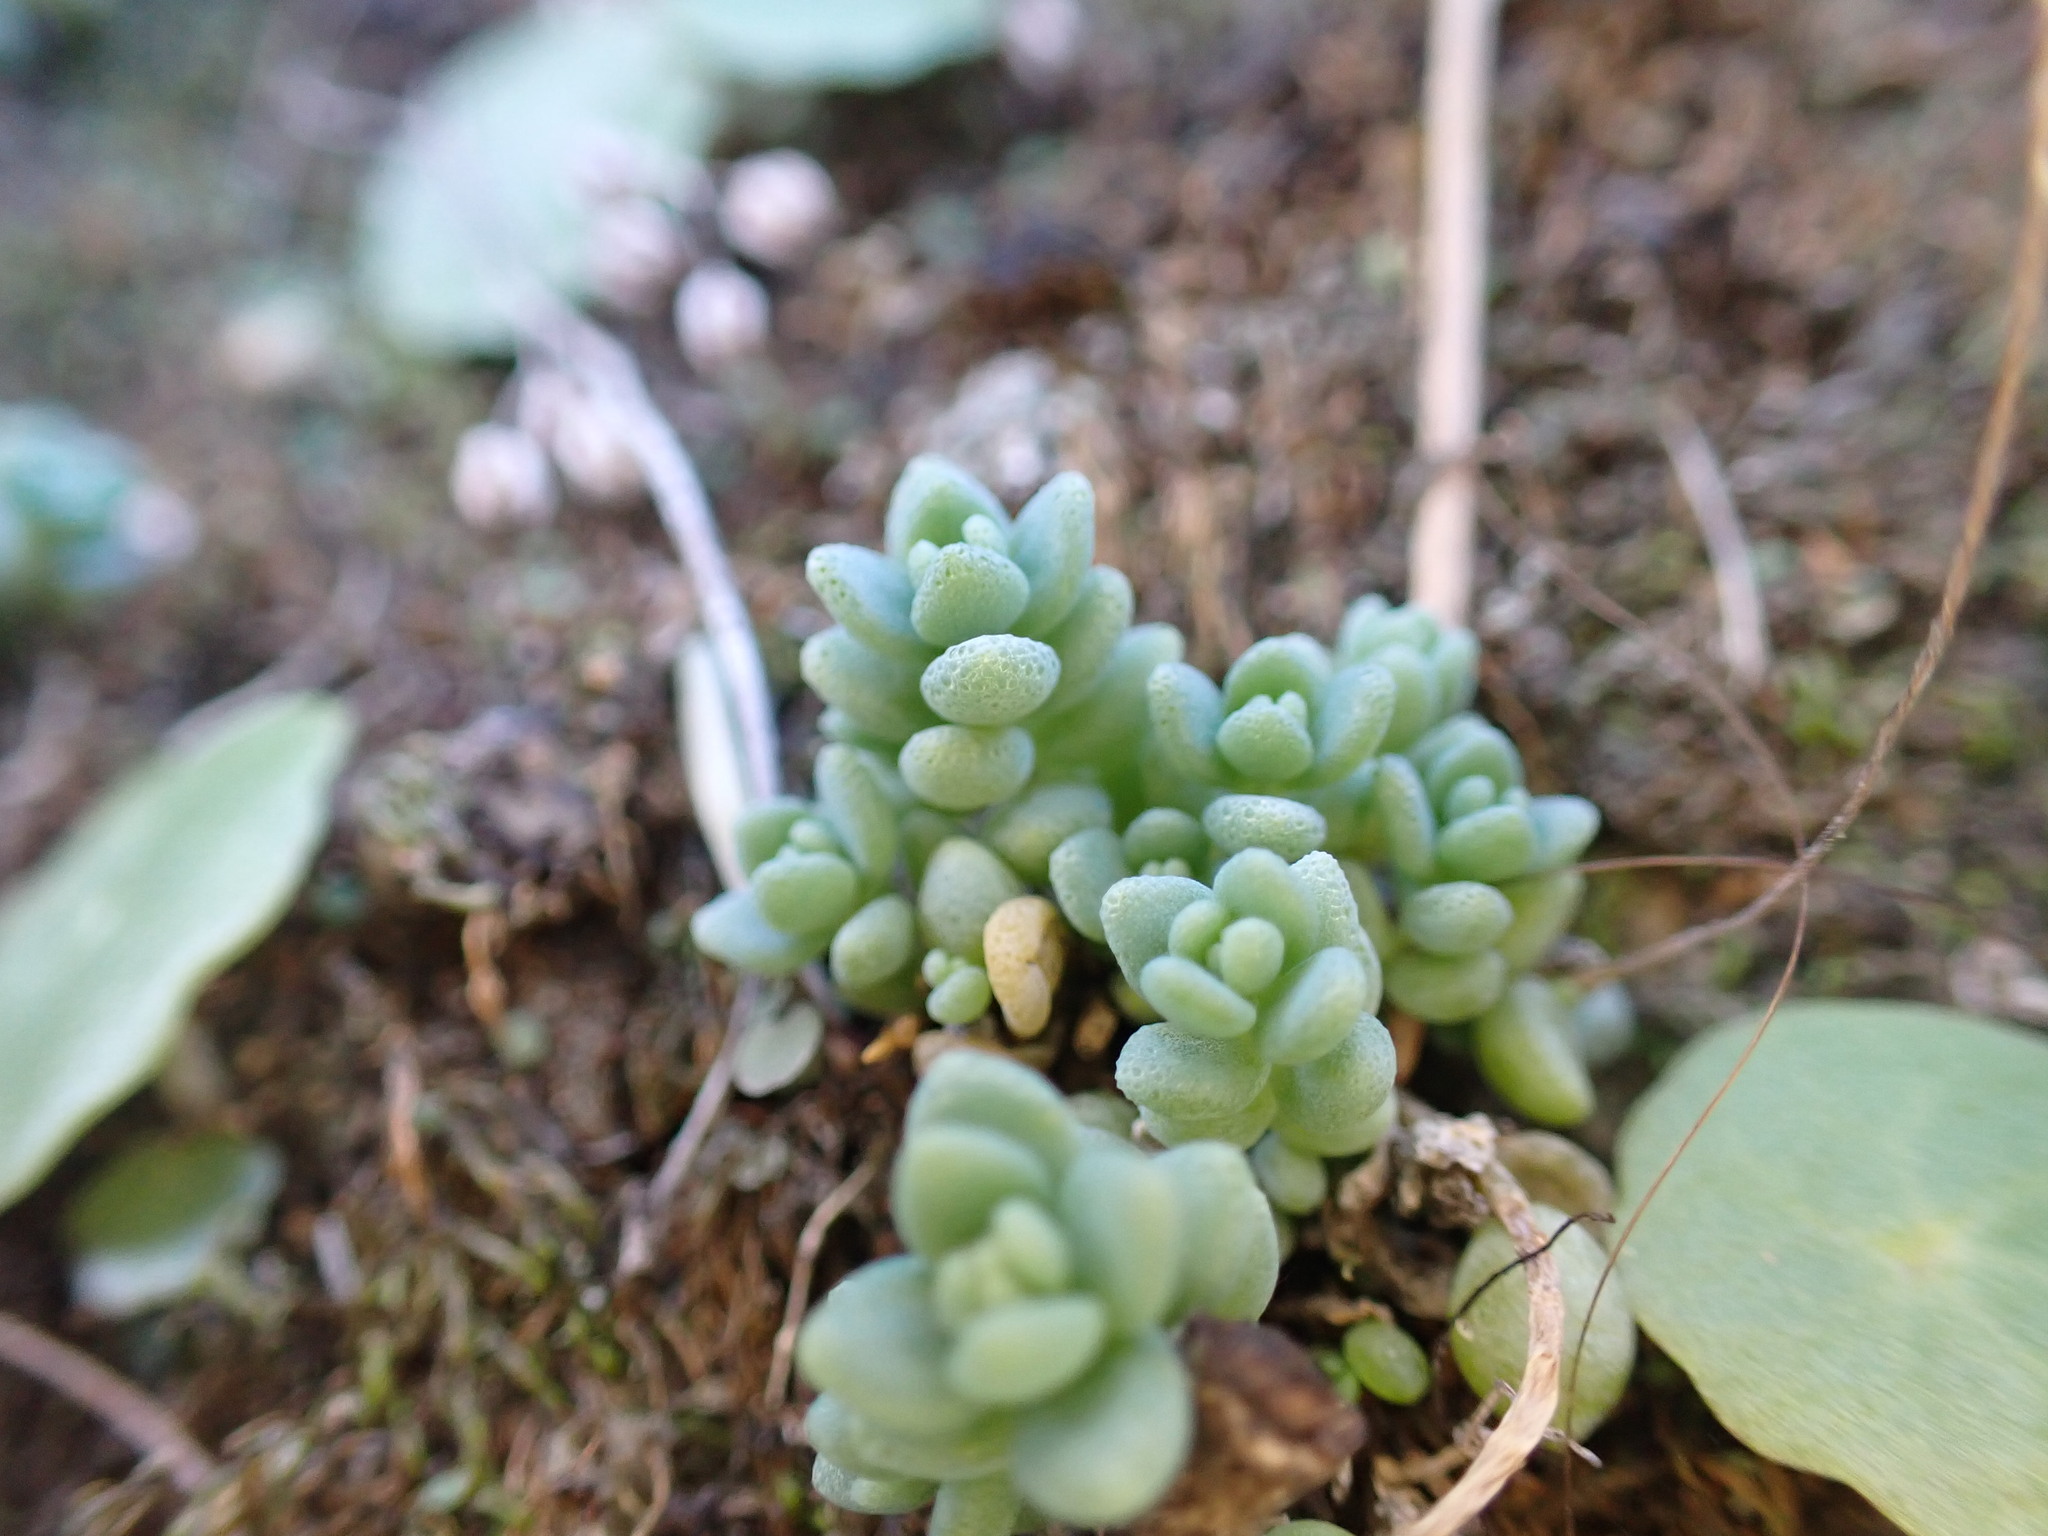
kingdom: Plantae
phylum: Tracheophyta
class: Magnoliopsida
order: Saxifragales
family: Crassulaceae
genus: Sedum
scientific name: Sedum dasyphyllum
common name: Thick-leaf stonecrop
